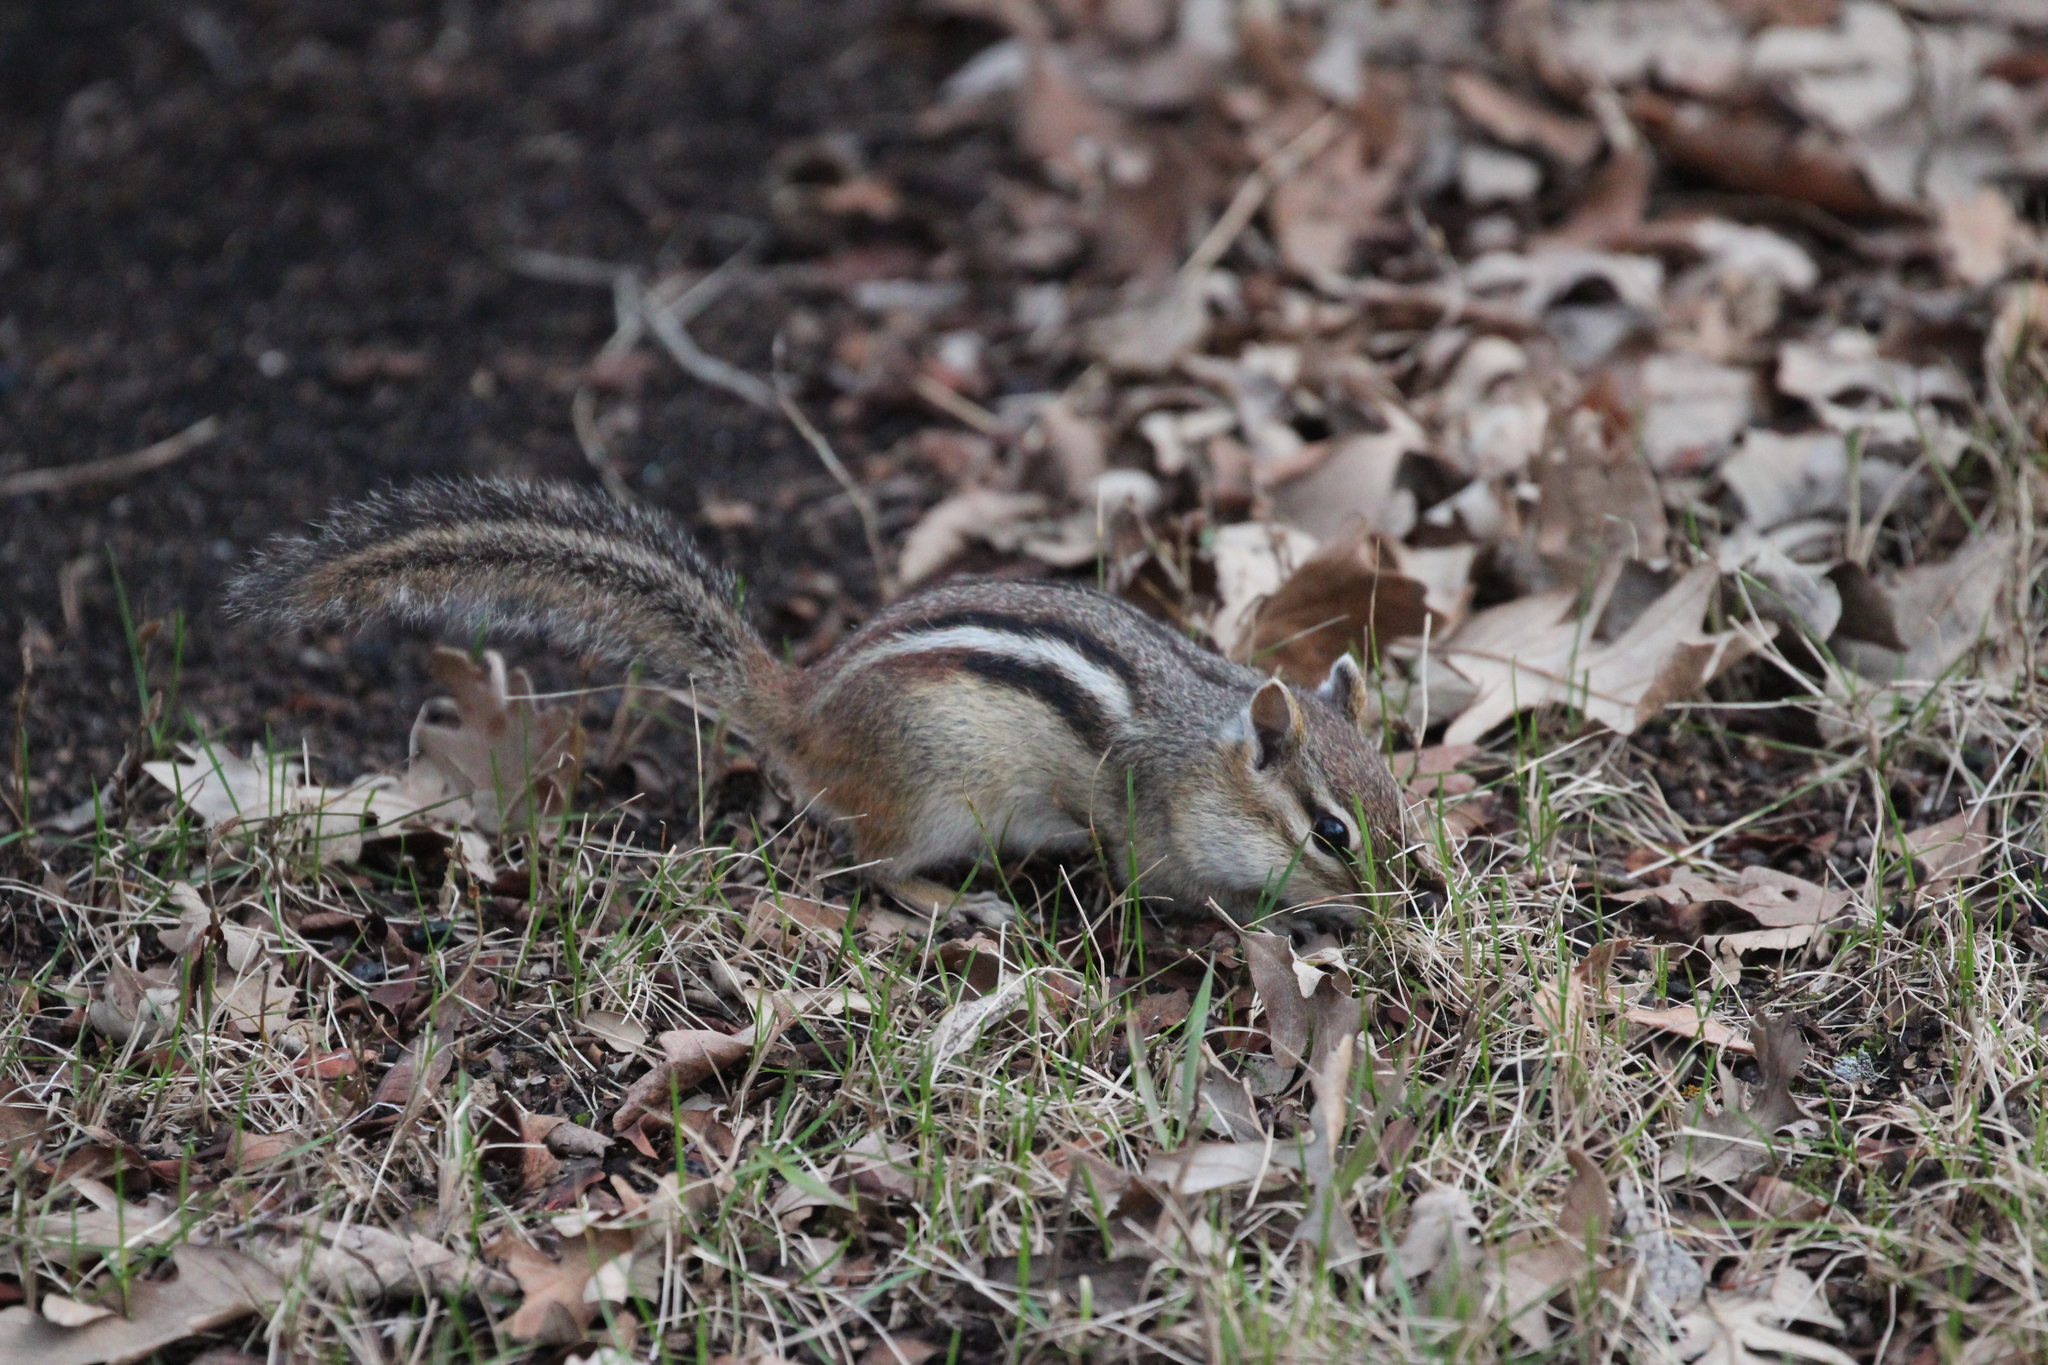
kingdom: Animalia
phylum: Chordata
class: Mammalia
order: Rodentia
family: Sciuridae
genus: Tamias
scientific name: Tamias striatus
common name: Eastern chipmunk
